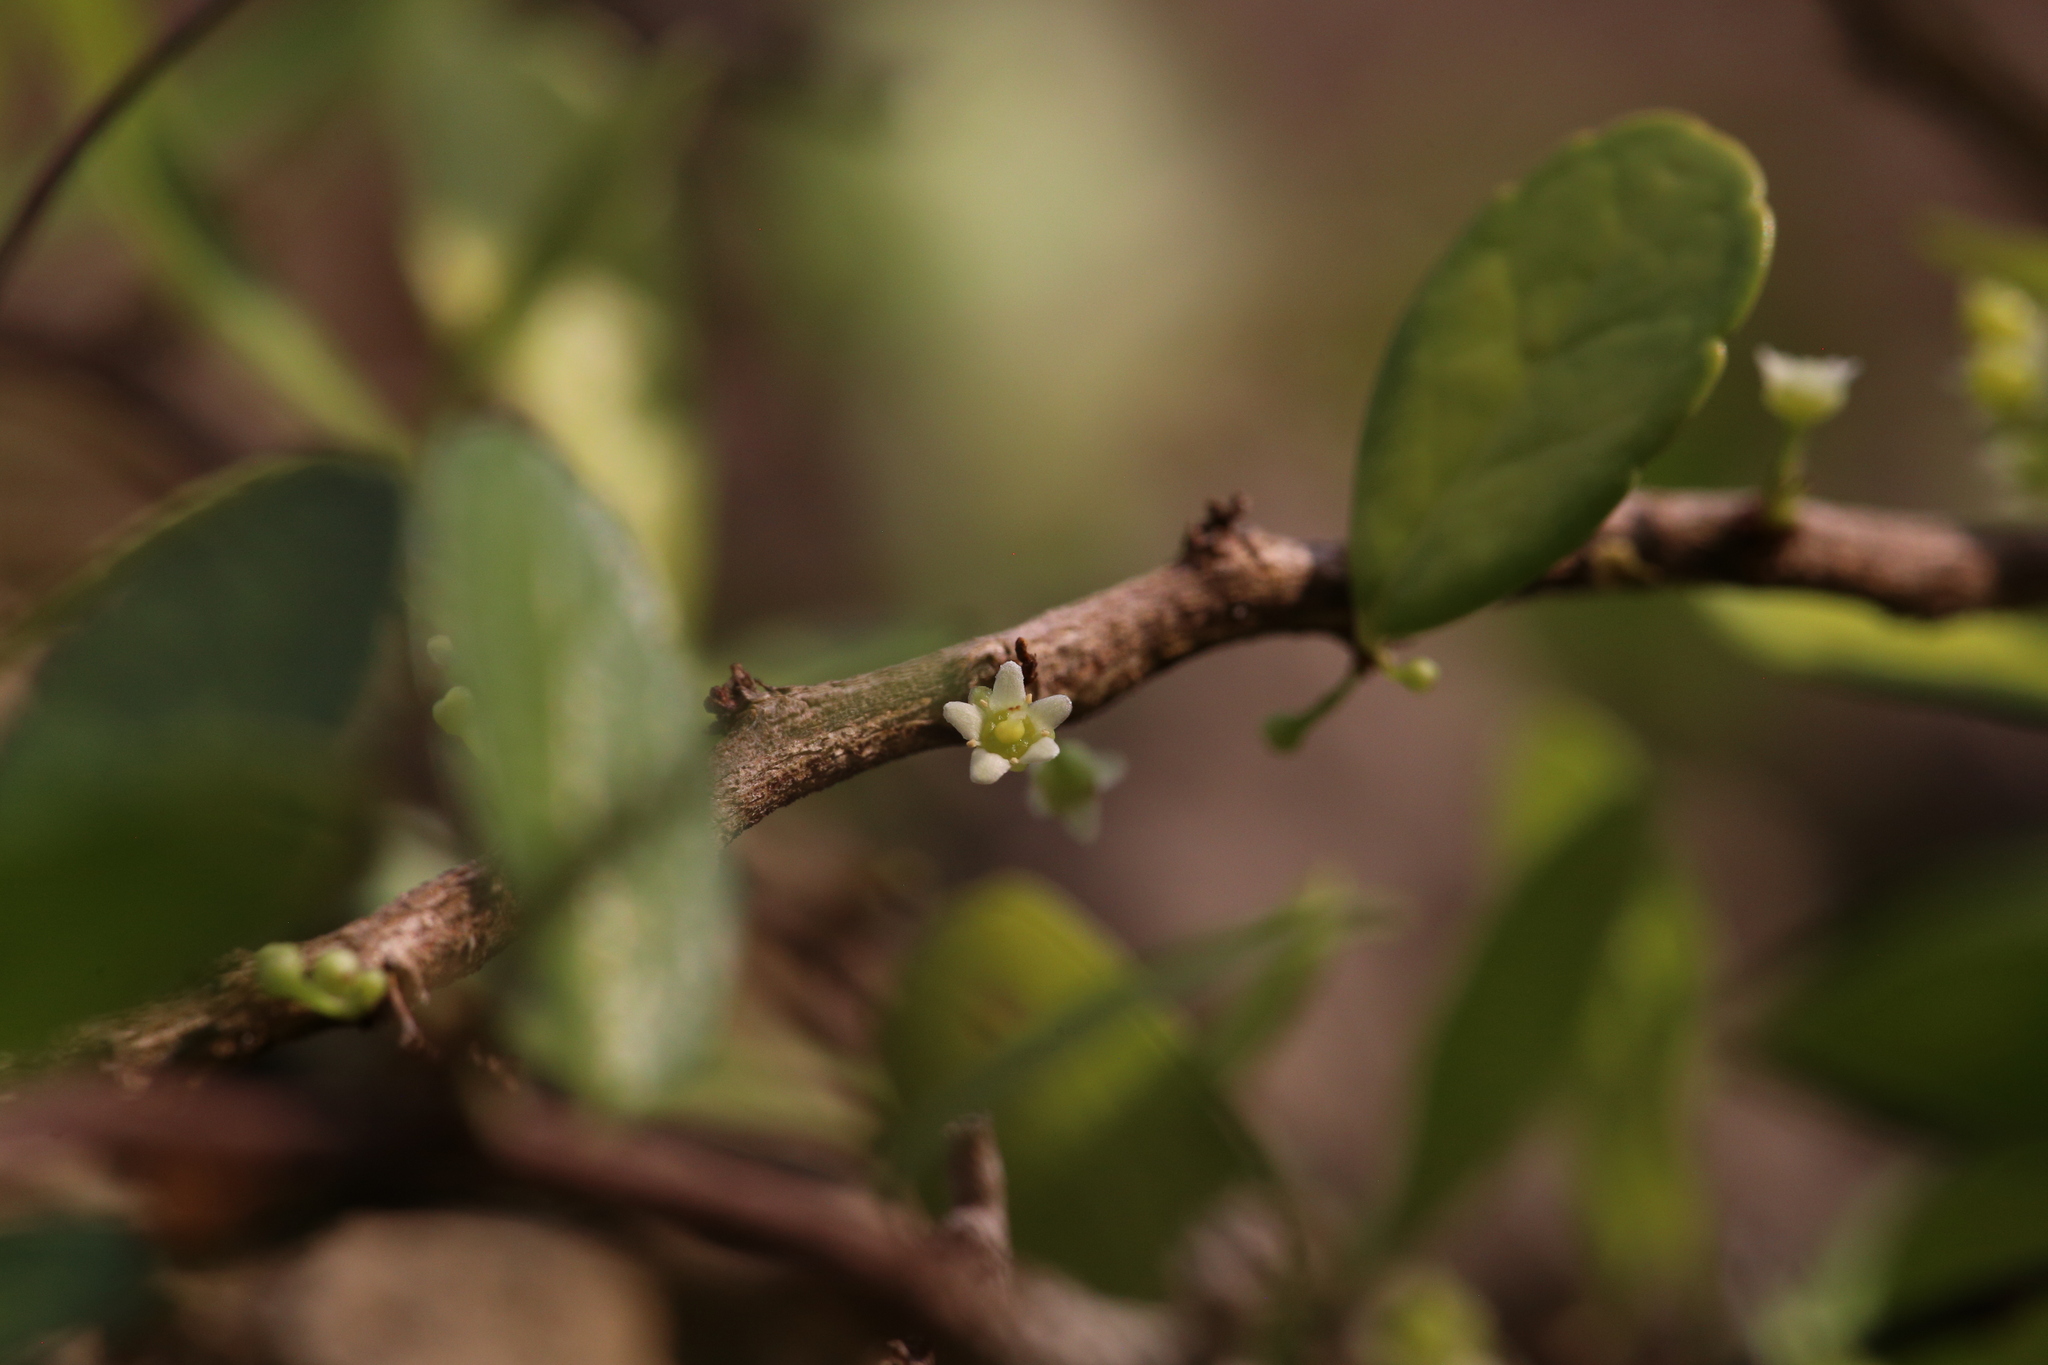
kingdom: Plantae
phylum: Tracheophyta
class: Magnoliopsida
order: Celastrales
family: Celastraceae
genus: Gymnosporia
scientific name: Gymnosporia diversifolia
